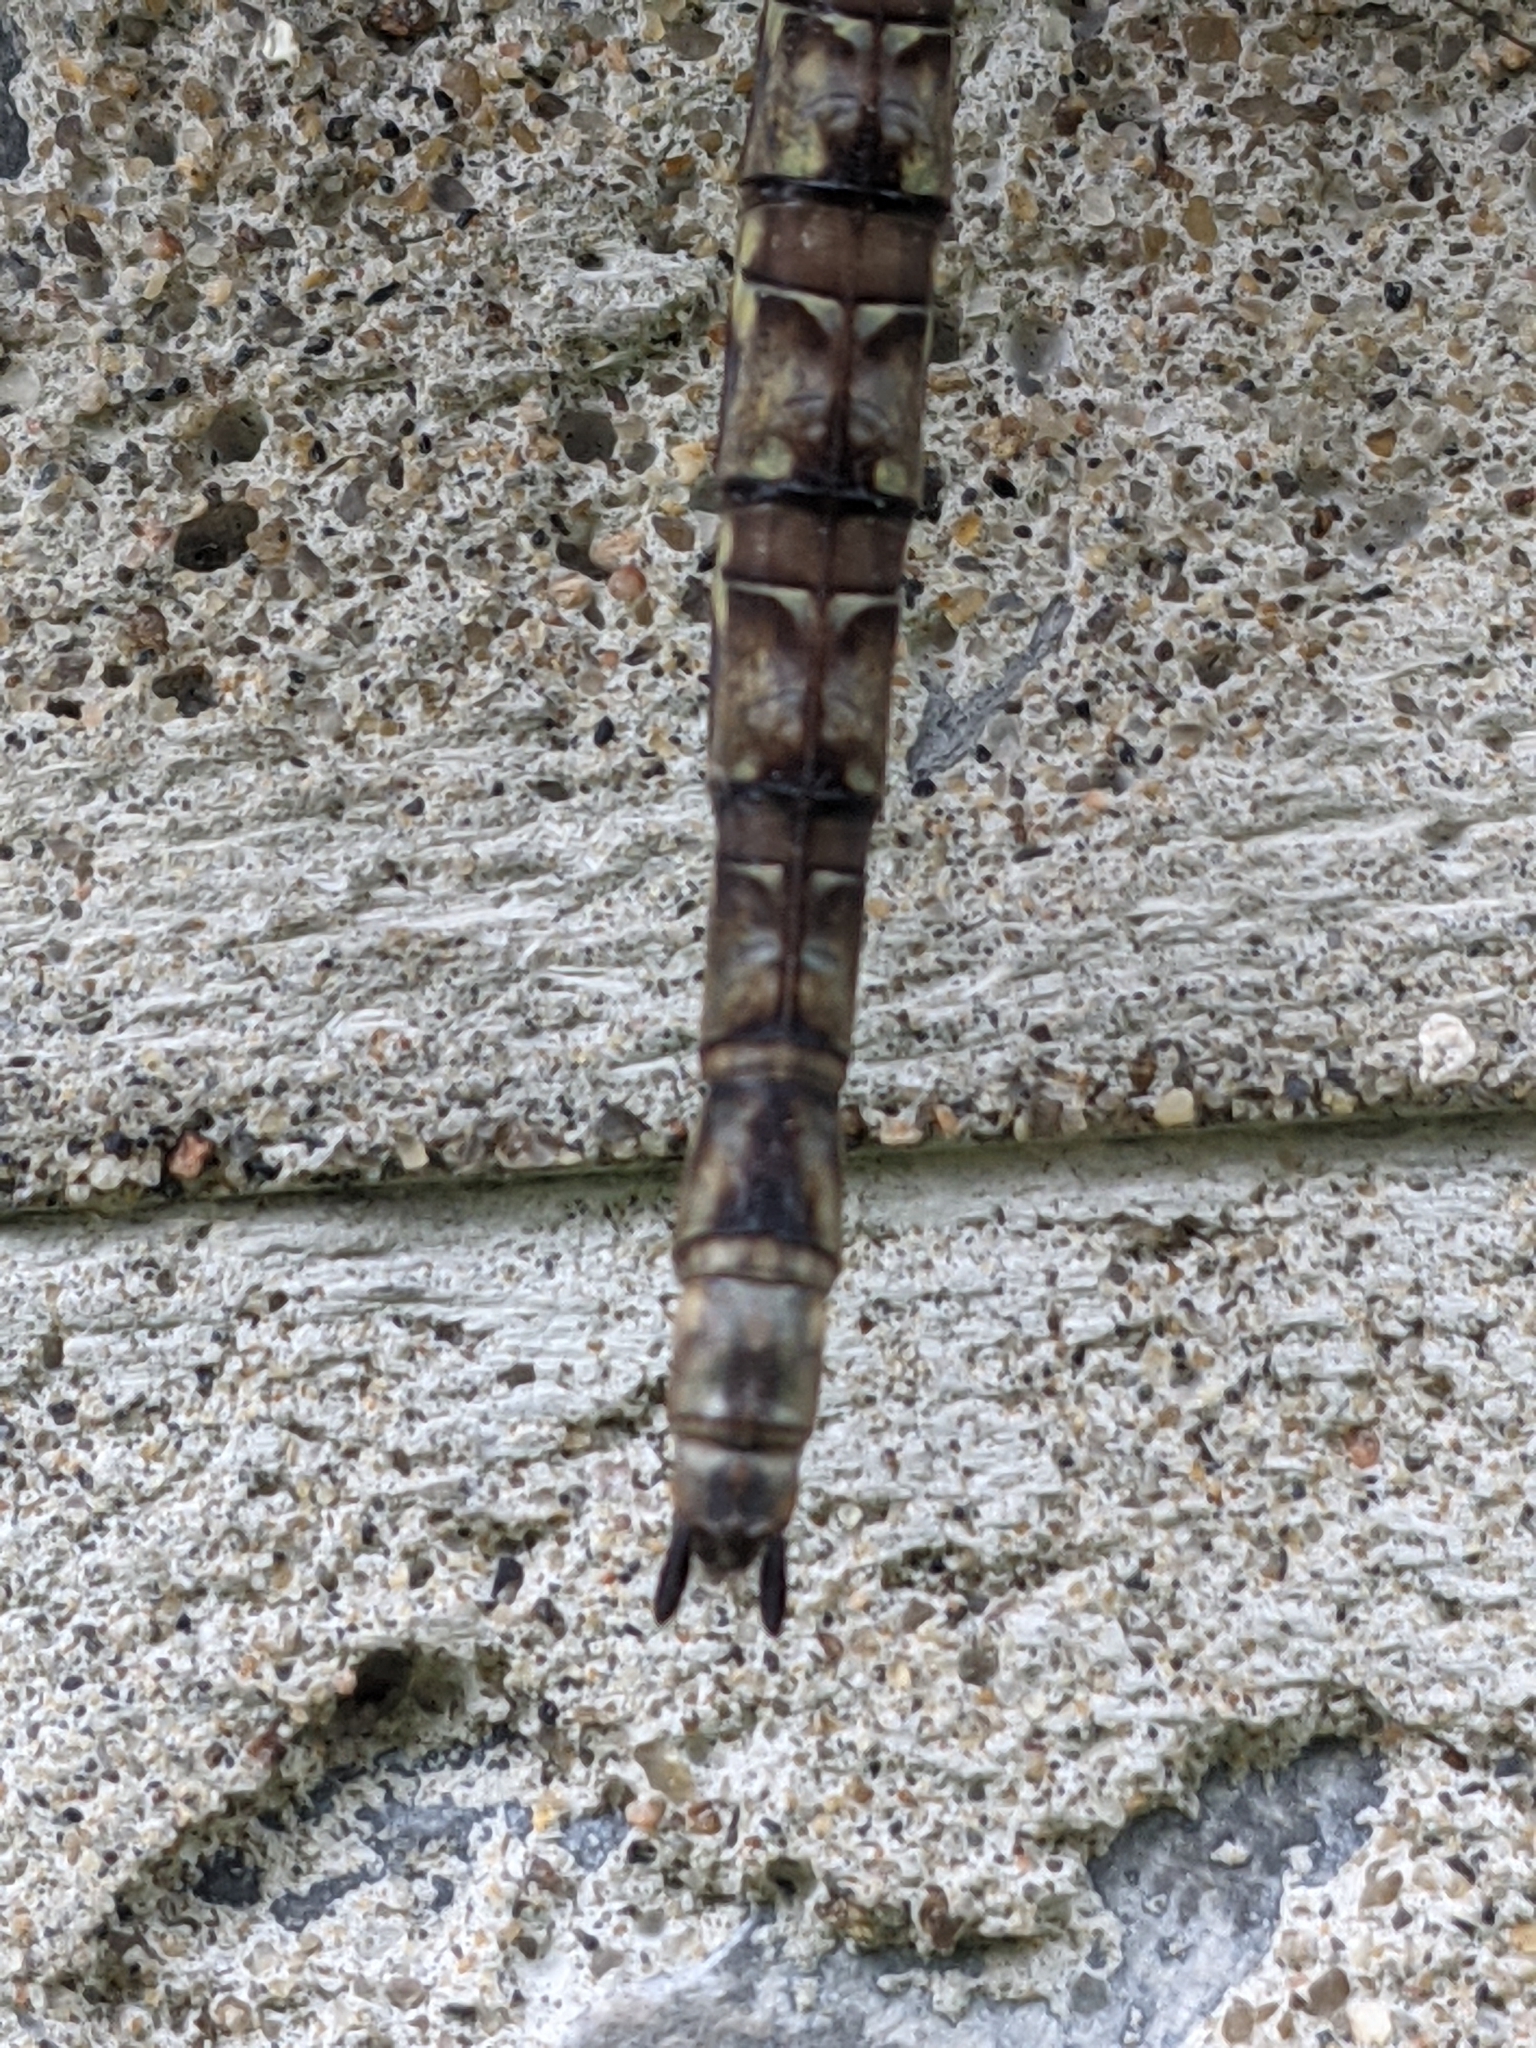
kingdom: Animalia
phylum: Arthropoda
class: Insecta
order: Odonata
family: Aeshnidae
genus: Boyeria
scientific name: Boyeria grafiana
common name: Ocellated darner
